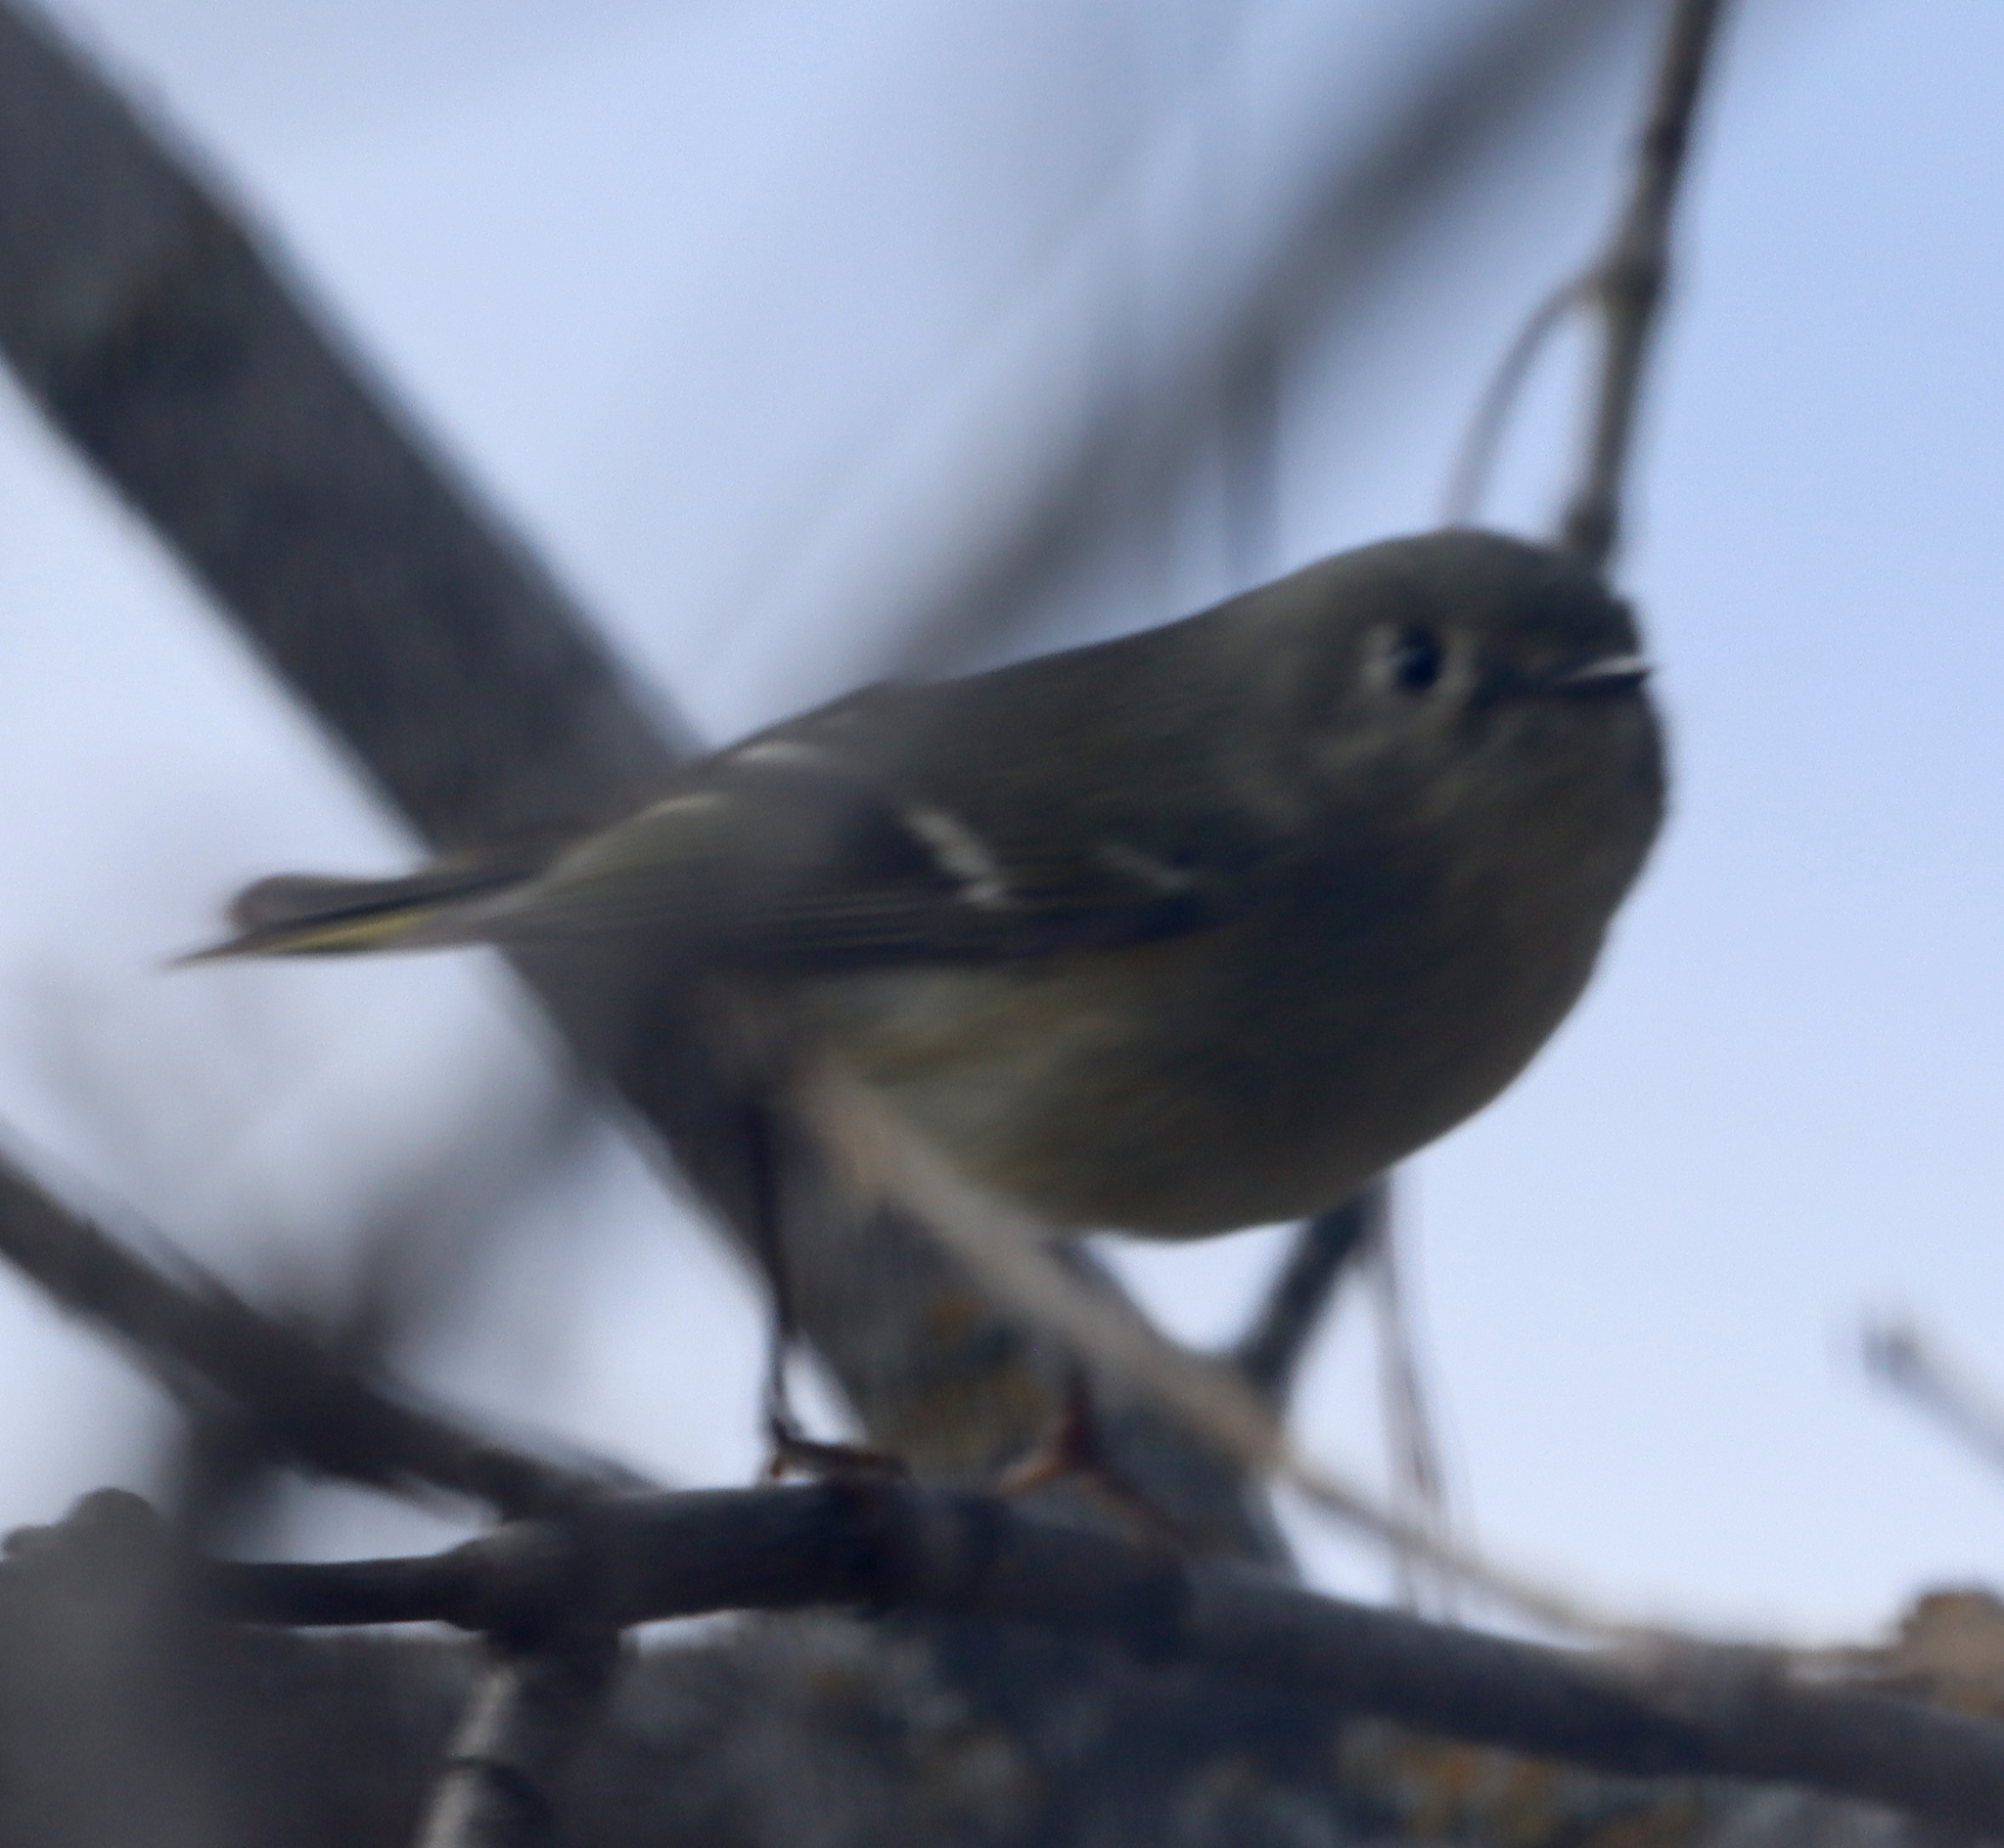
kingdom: Animalia
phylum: Chordata
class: Aves
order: Passeriformes
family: Regulidae
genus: Regulus
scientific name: Regulus calendula
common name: Ruby-crowned kinglet
